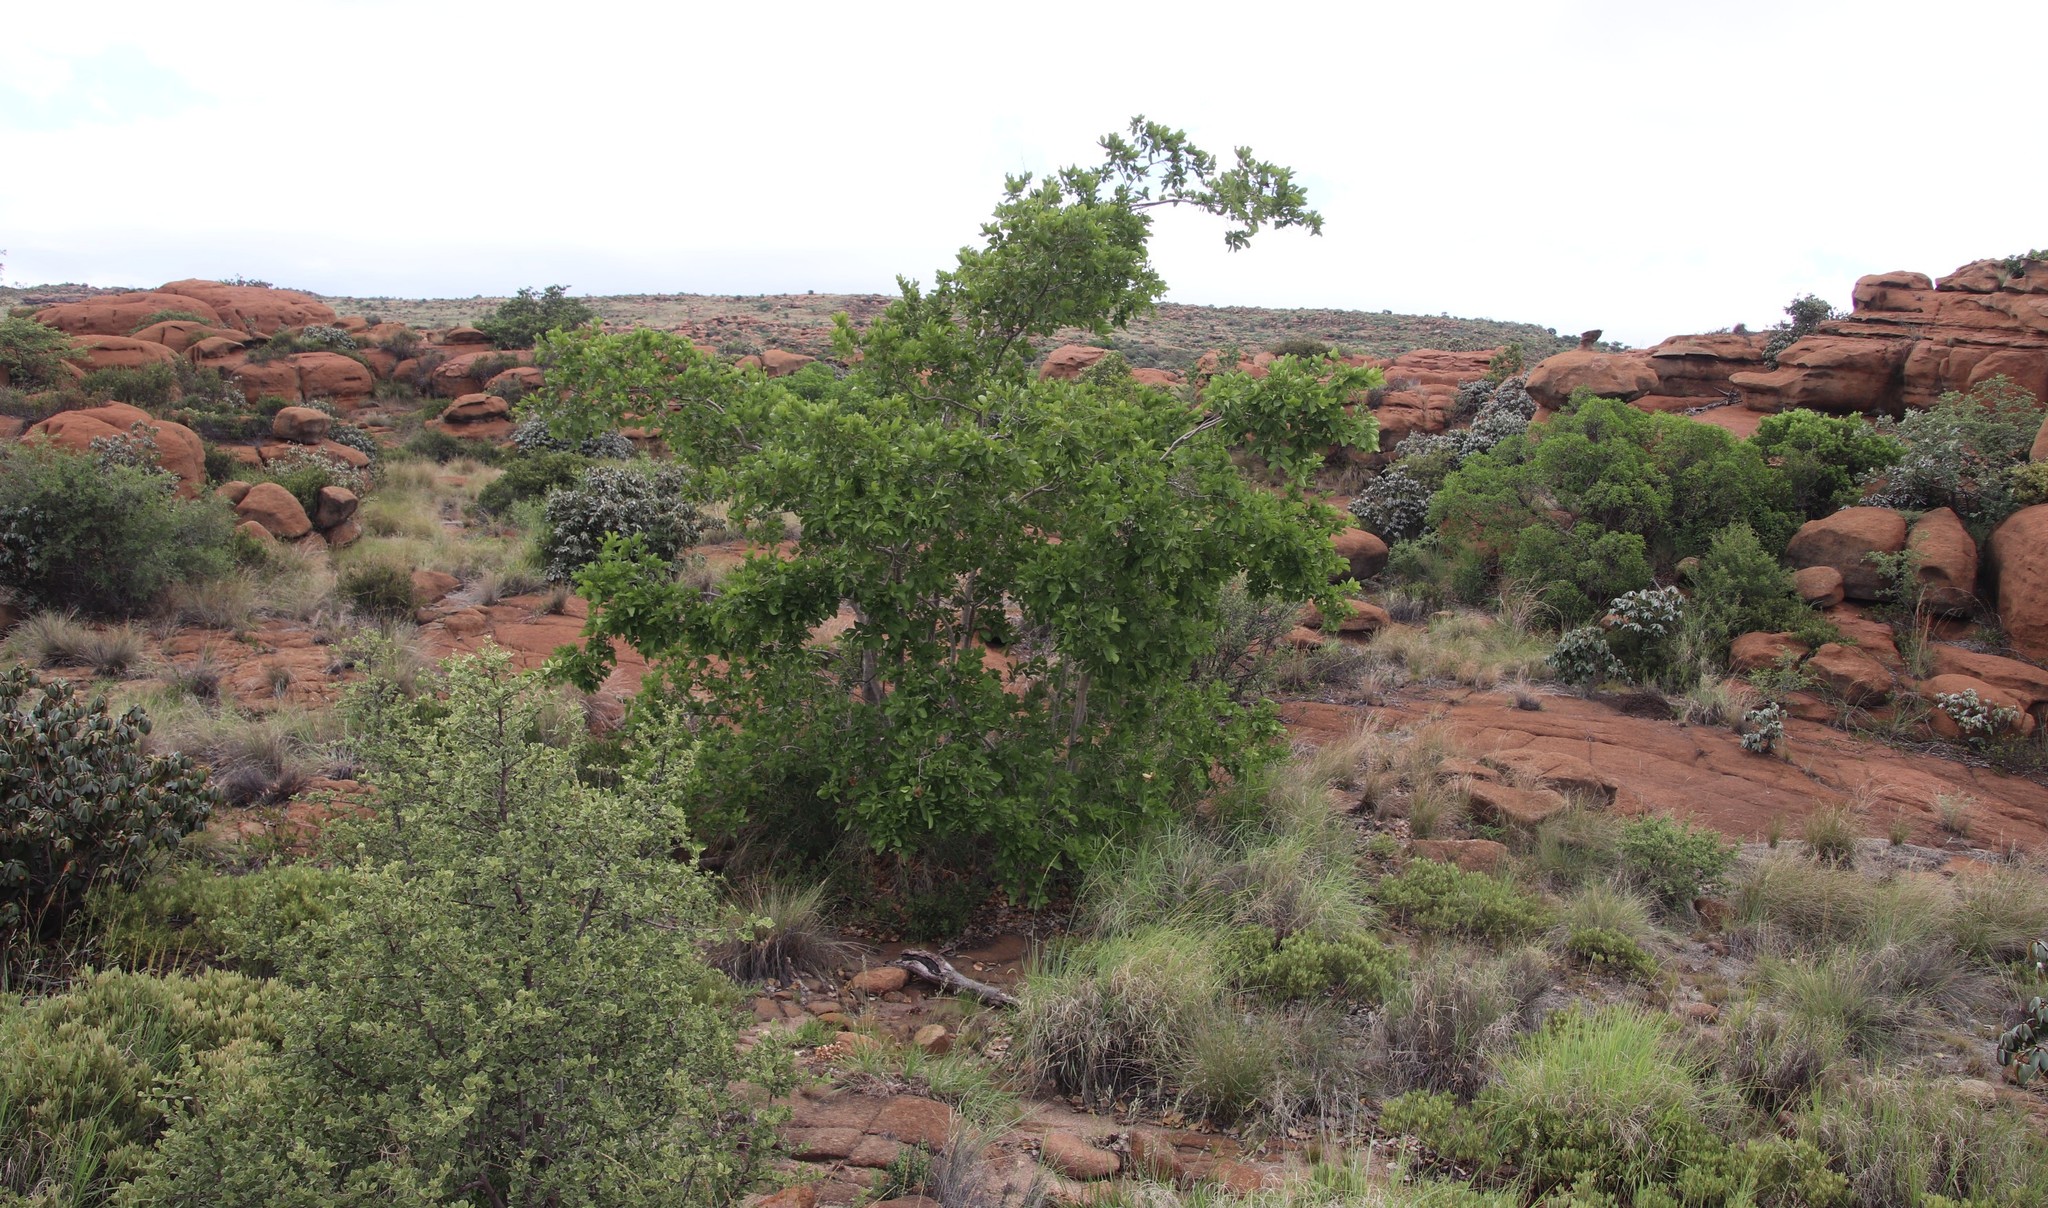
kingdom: Plantae
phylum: Tracheophyta
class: Magnoliopsida
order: Myrtales
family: Combretaceae
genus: Combretum
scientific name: Combretum zeyheri
